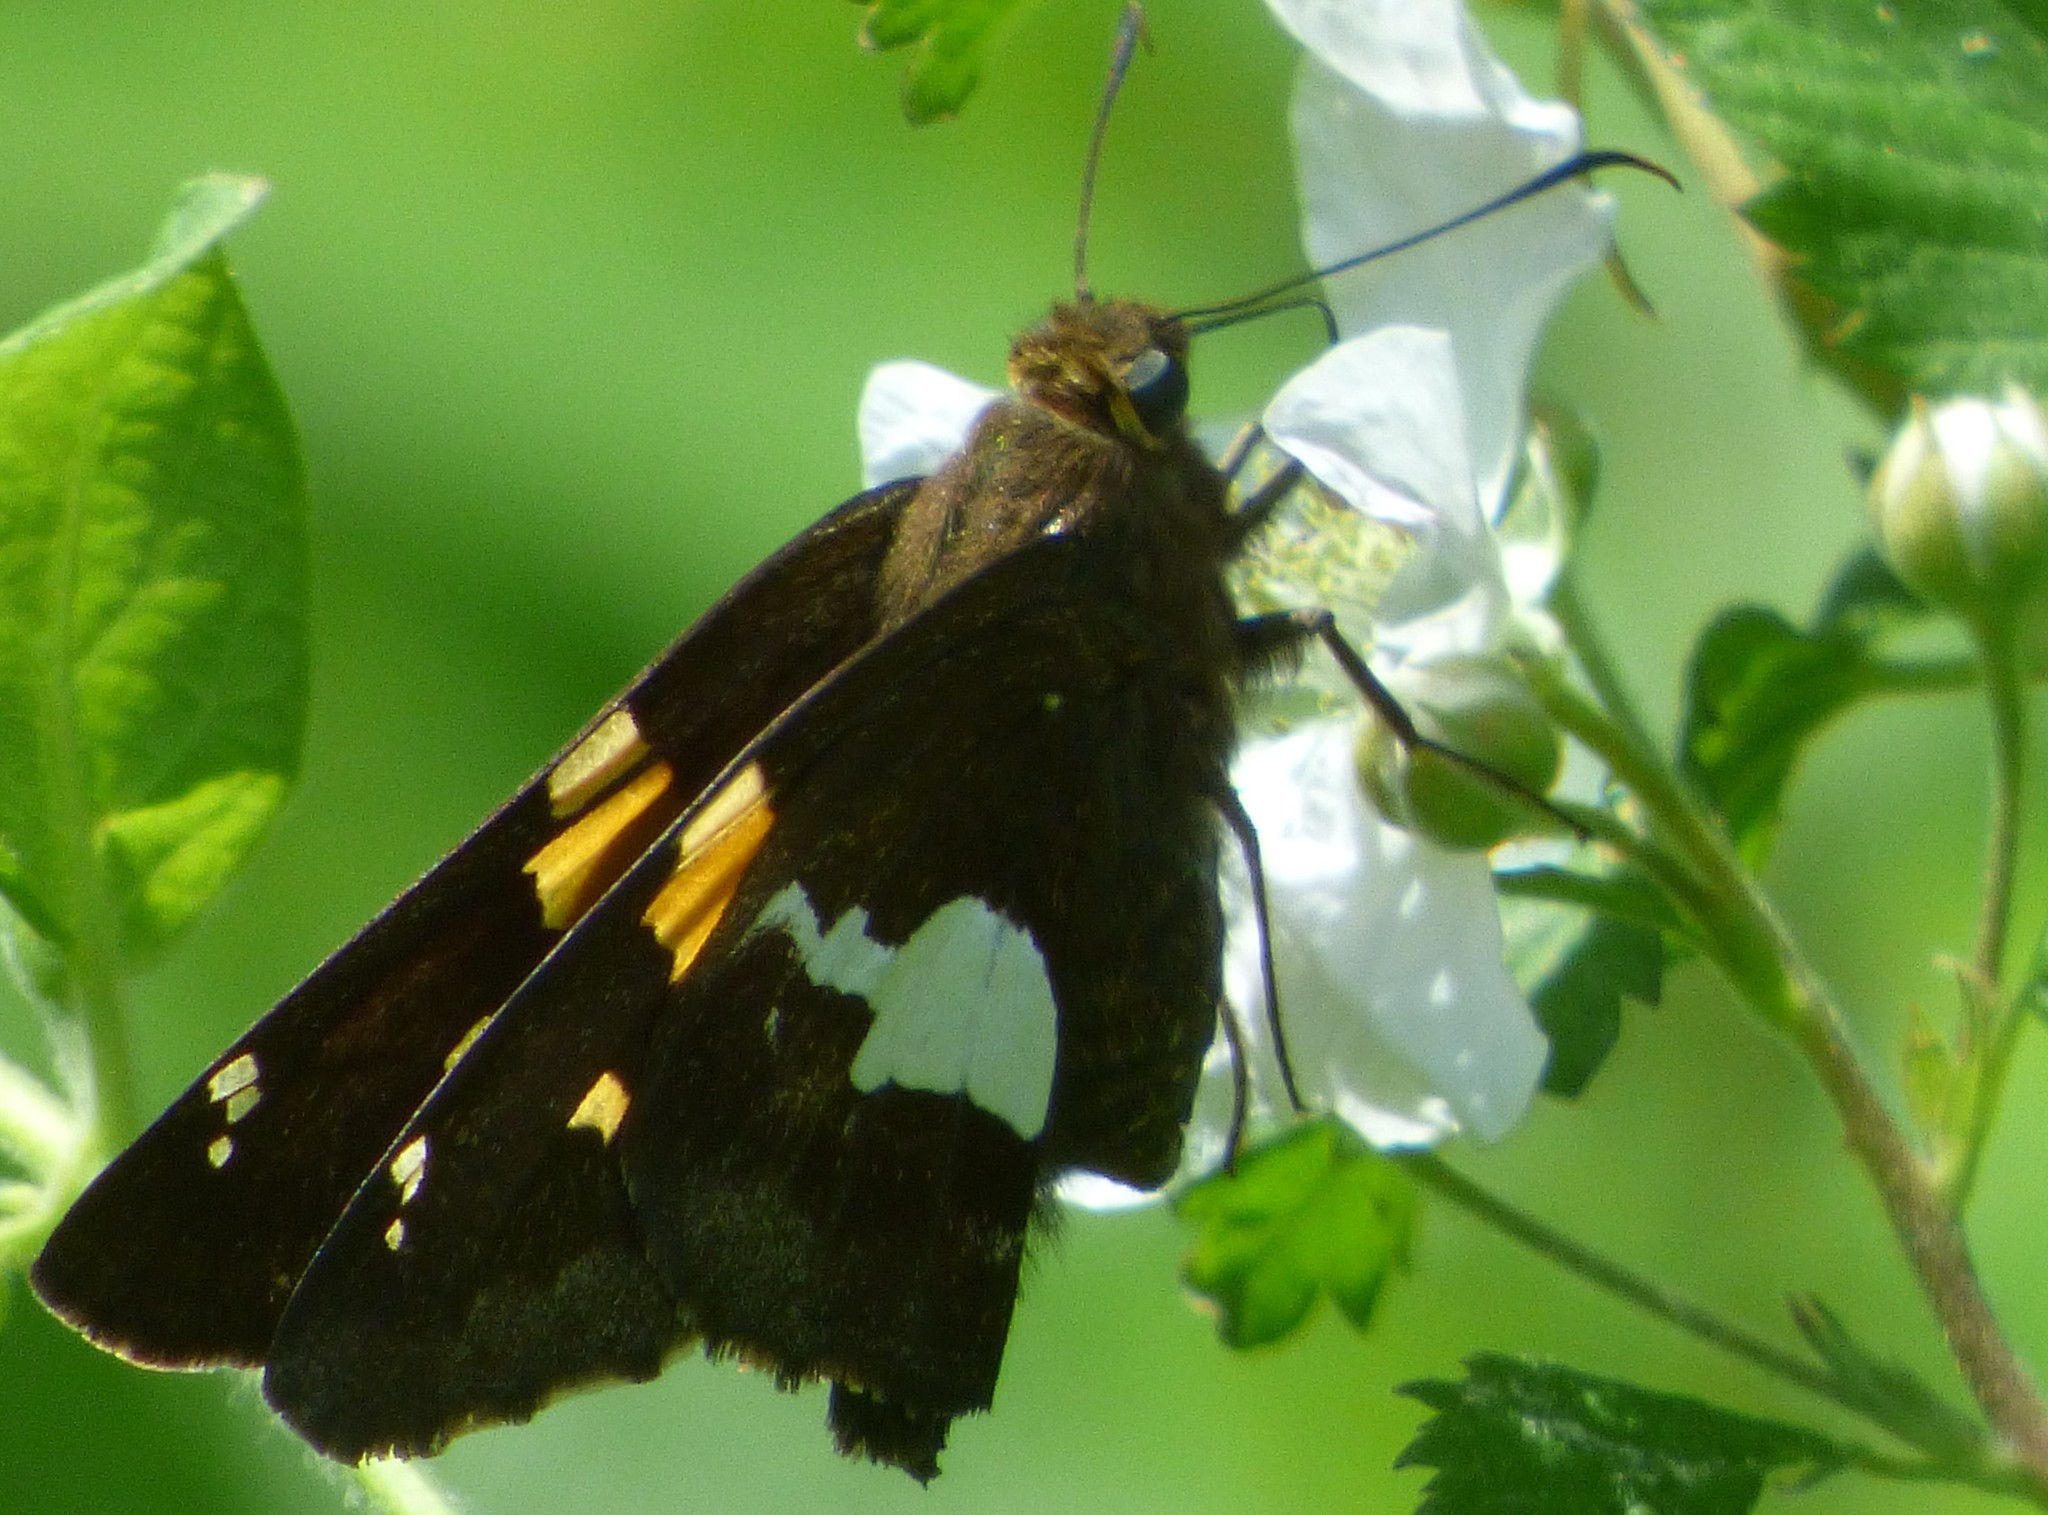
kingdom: Animalia
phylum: Arthropoda
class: Insecta
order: Lepidoptera
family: Hesperiidae
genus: Epargyreus
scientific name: Epargyreus clarus
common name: Silver-spotted skipper
